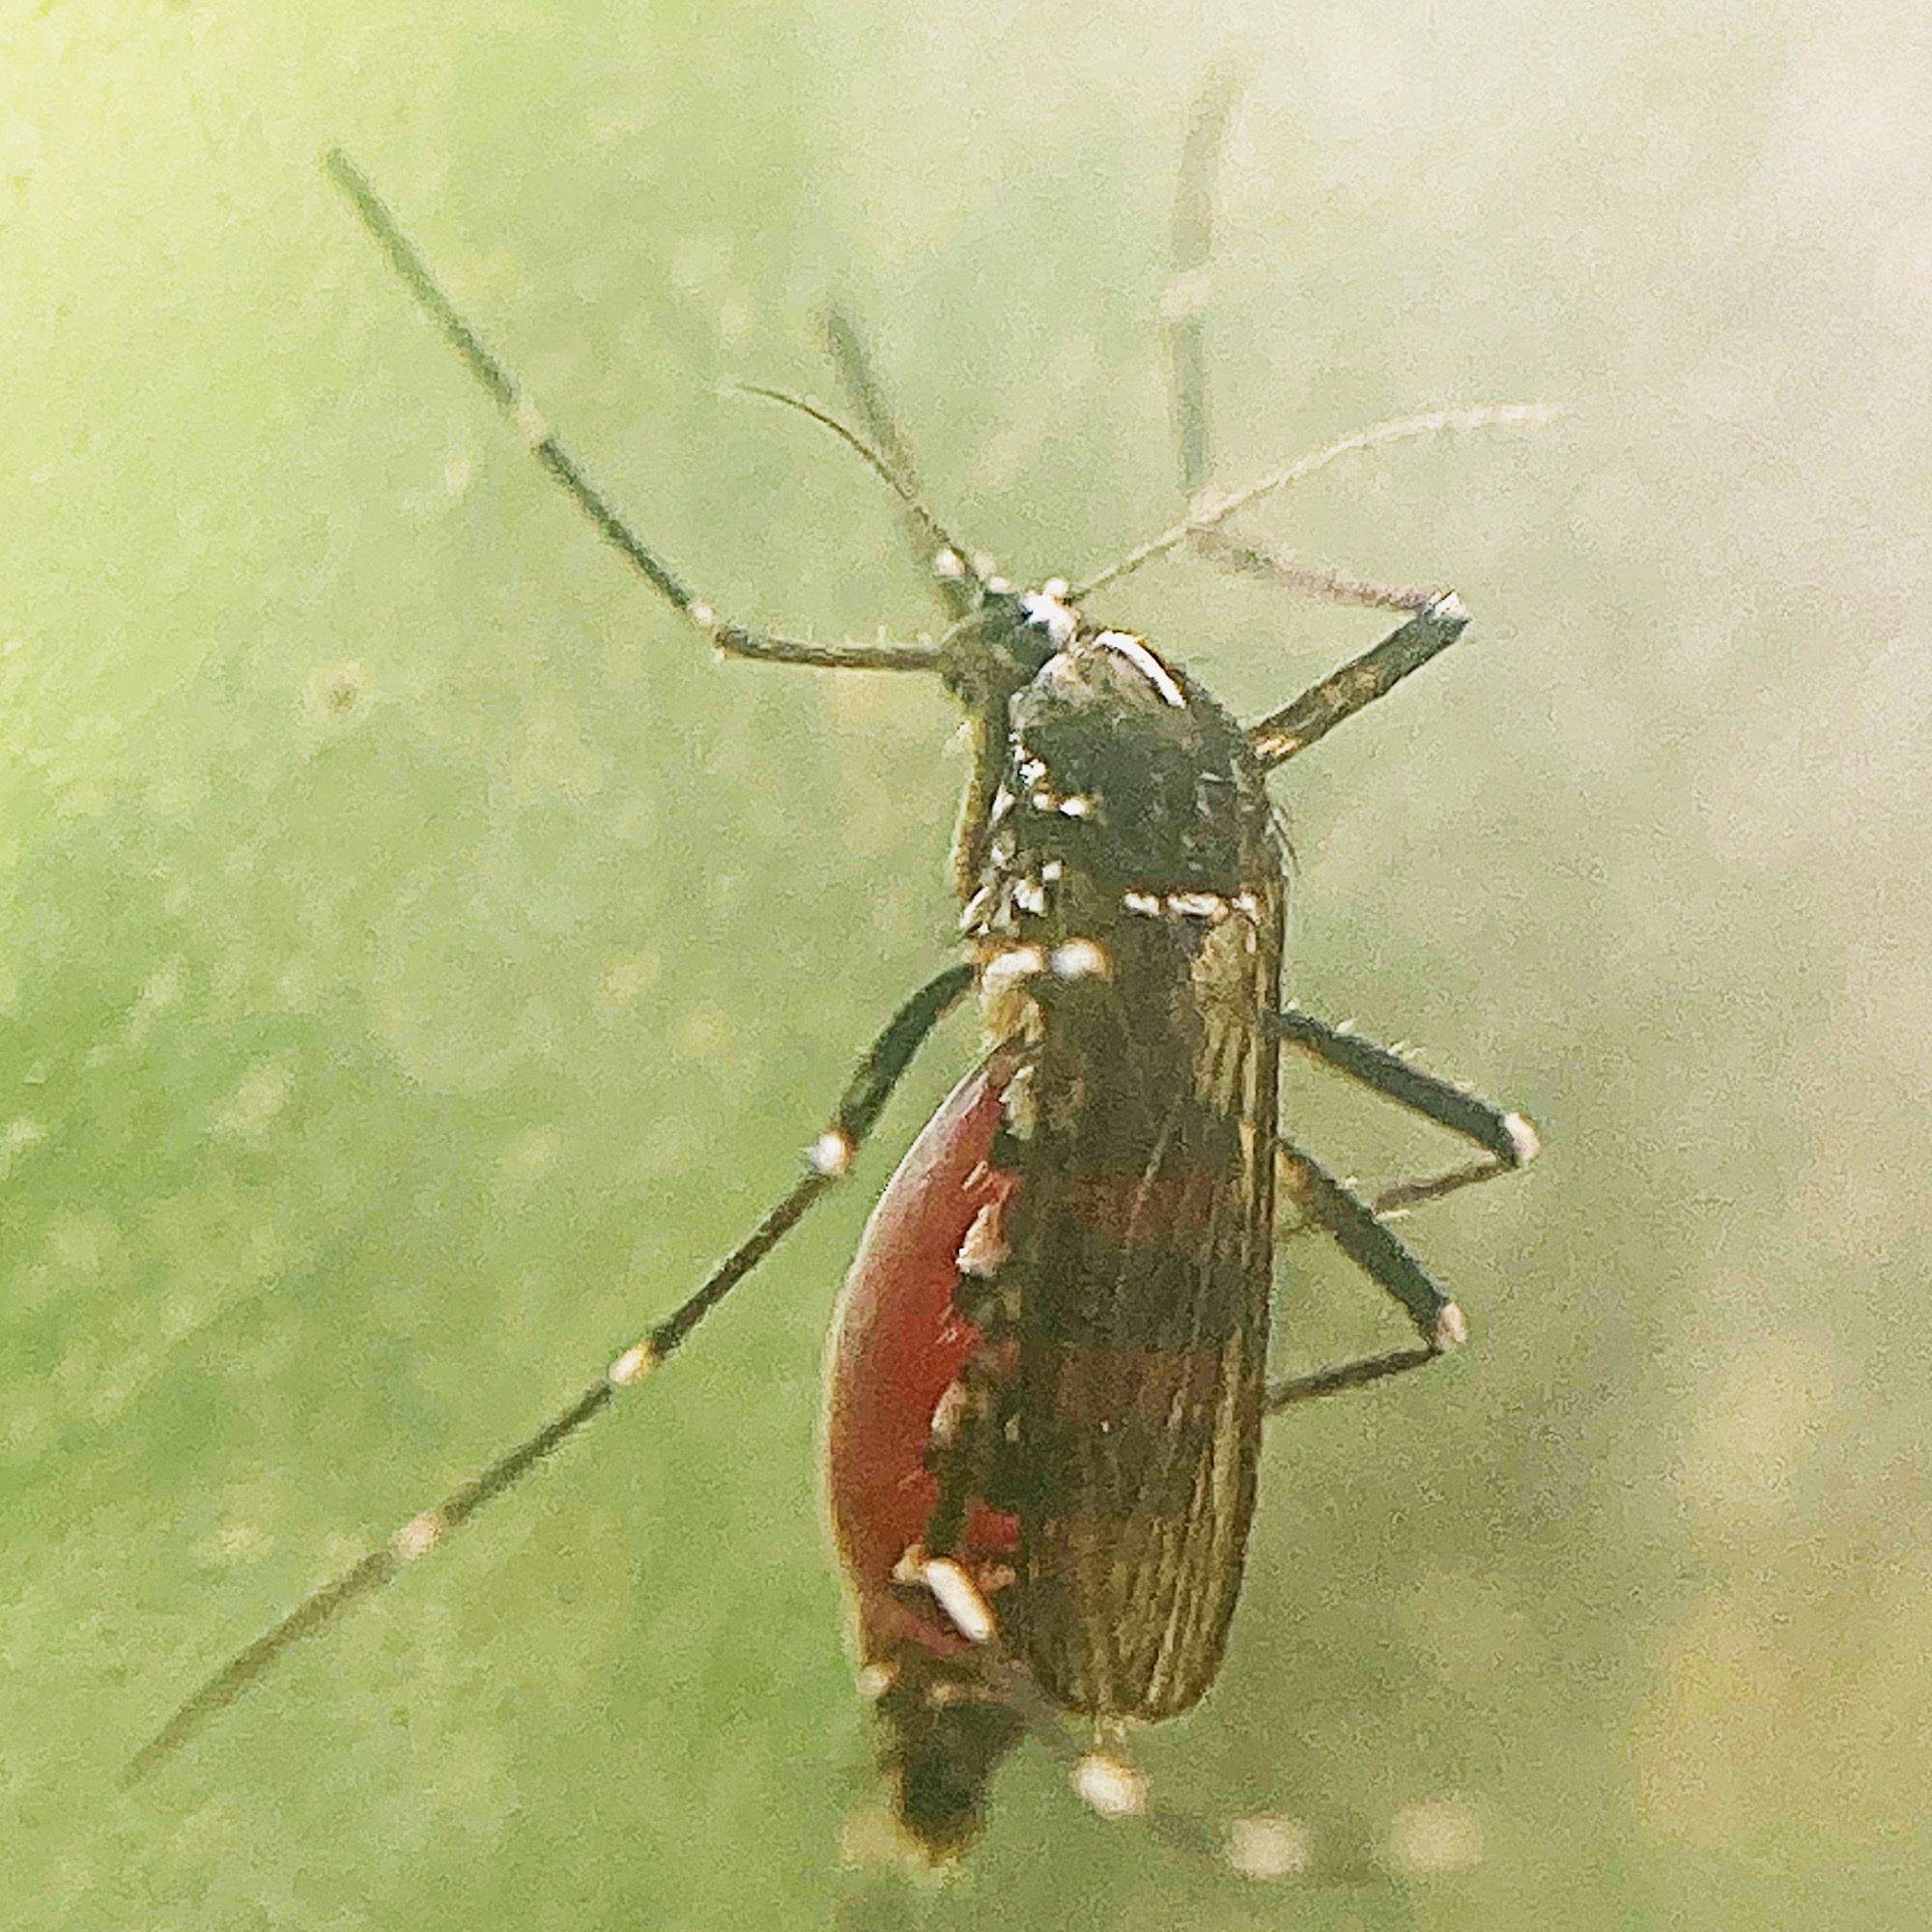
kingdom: Animalia
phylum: Arthropoda
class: Insecta
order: Diptera
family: Culicidae
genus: Aedes
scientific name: Aedes albopictus
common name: Tiger mosquito
